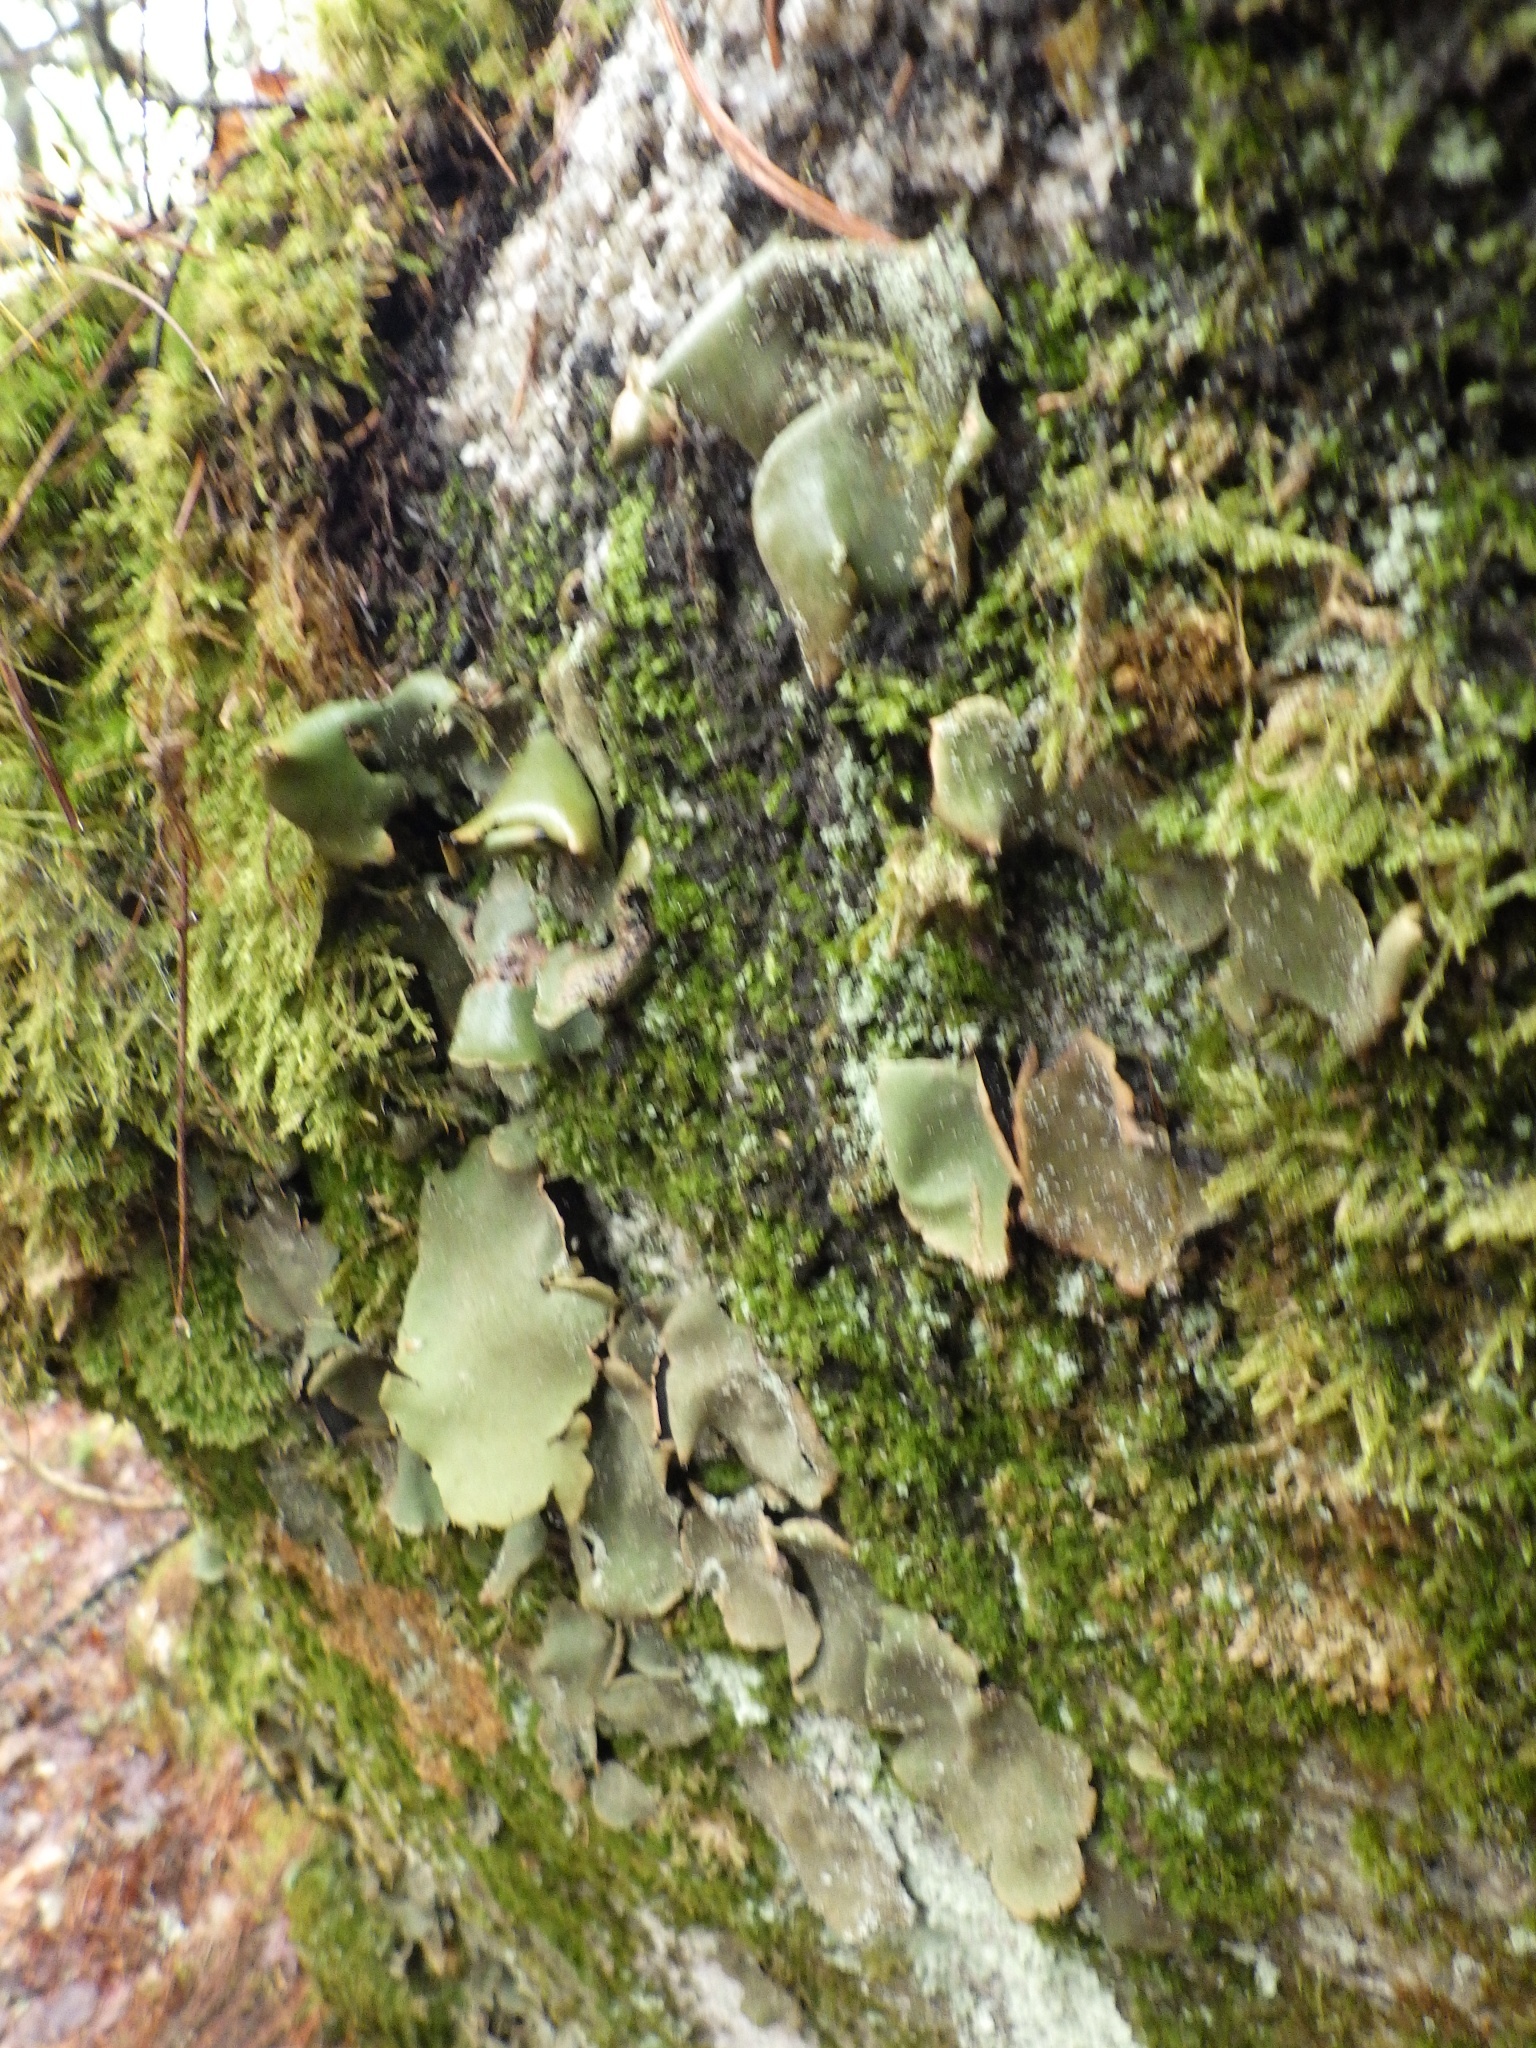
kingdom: Fungi
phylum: Ascomycota
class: Lecanoromycetes
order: Umbilicariales
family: Umbilicariaceae
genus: Umbilicaria
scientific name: Umbilicaria mammulata
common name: Smooth rock tripe
